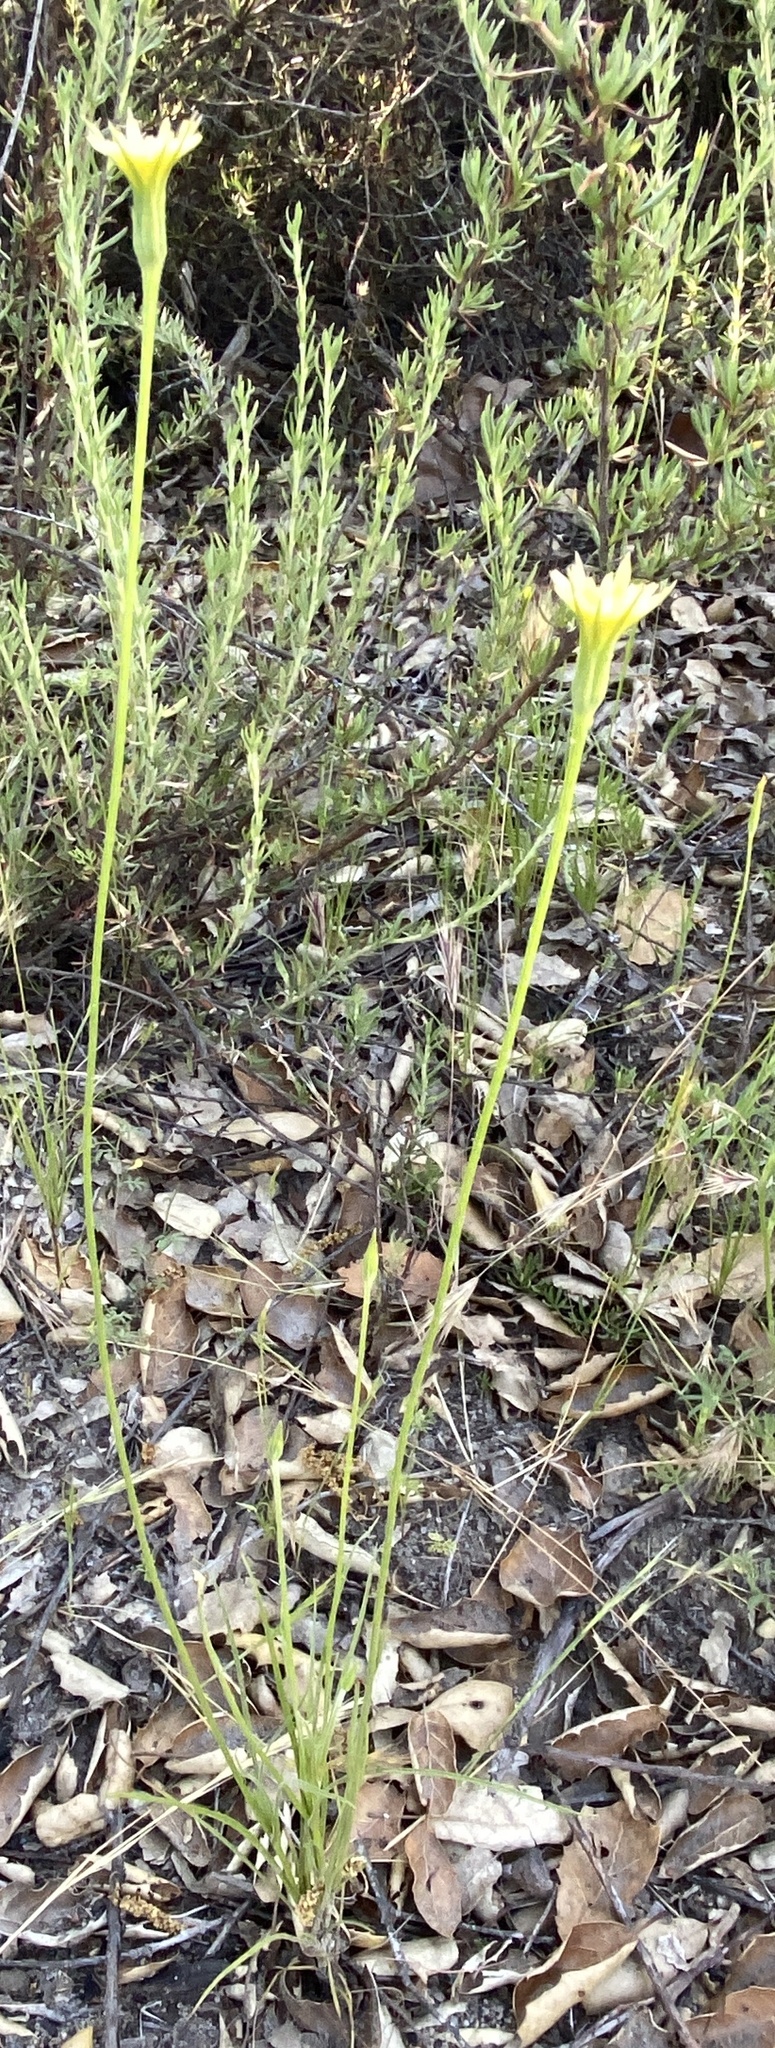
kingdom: Plantae
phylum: Tracheophyta
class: Magnoliopsida
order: Asterales
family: Asteraceae
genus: Microseris
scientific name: Microseris lindleyi
